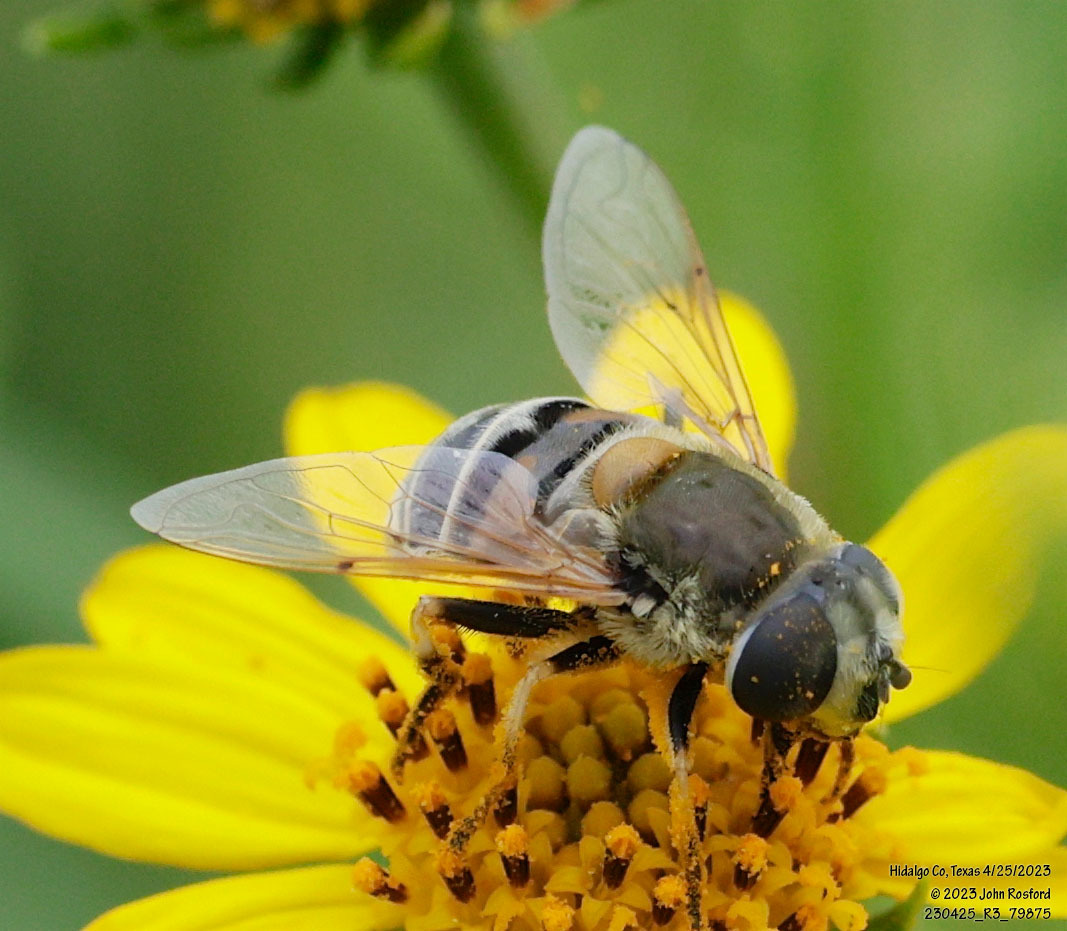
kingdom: Animalia
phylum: Arthropoda
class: Insecta
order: Diptera
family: Syrphidae
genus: Eristalis
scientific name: Eristalis stipator
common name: Yellow-shouldered drone fly
